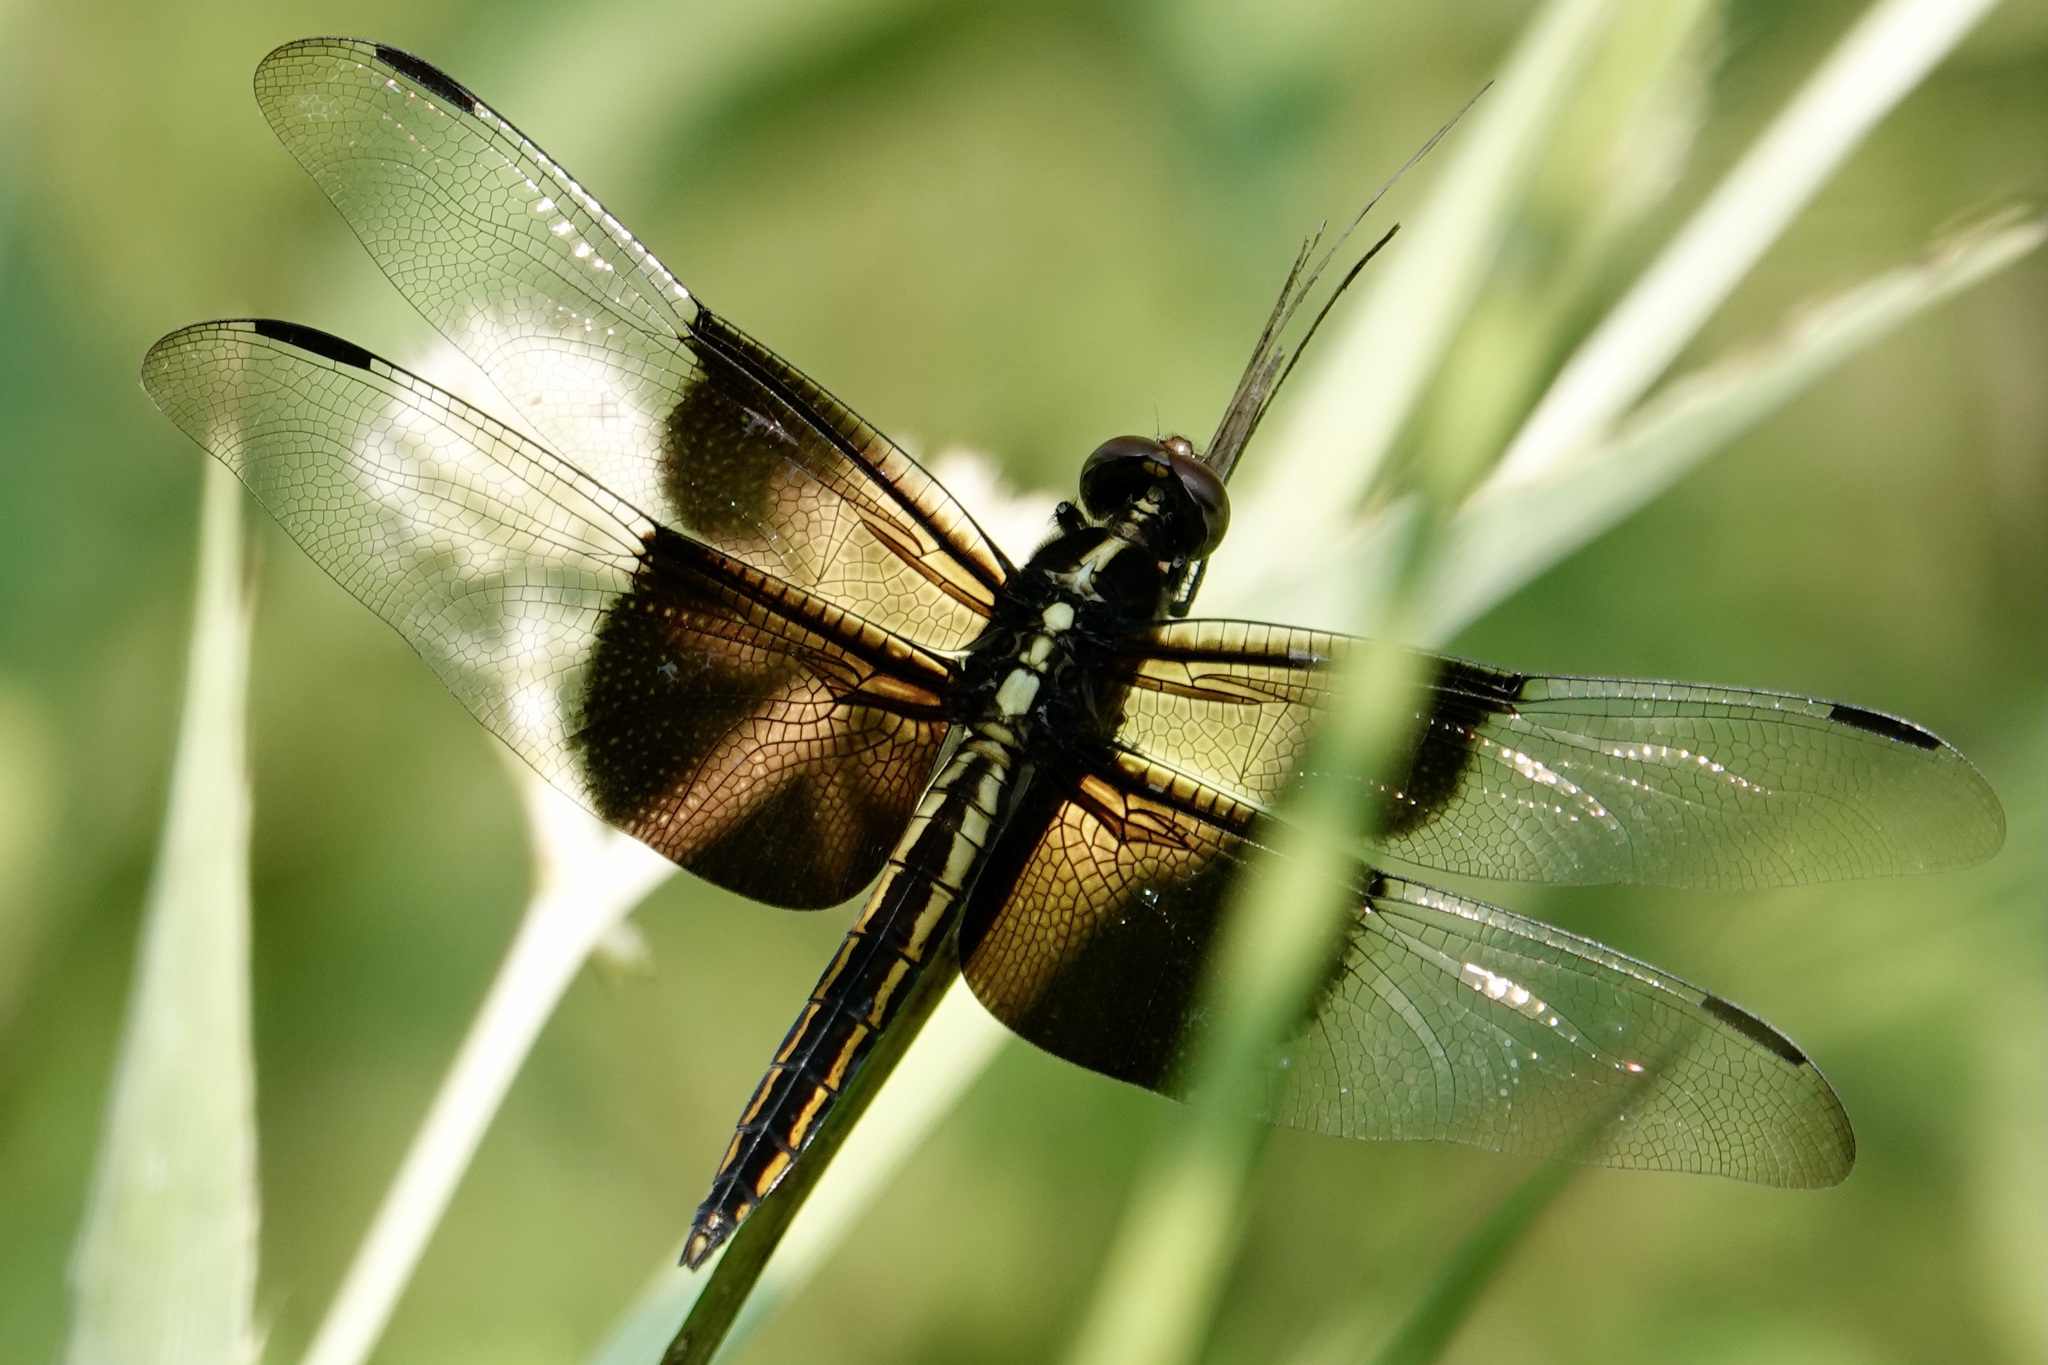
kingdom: Animalia
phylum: Arthropoda
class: Insecta
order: Odonata
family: Libellulidae
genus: Libellula
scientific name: Libellula luctuosa
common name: Widow skimmer
